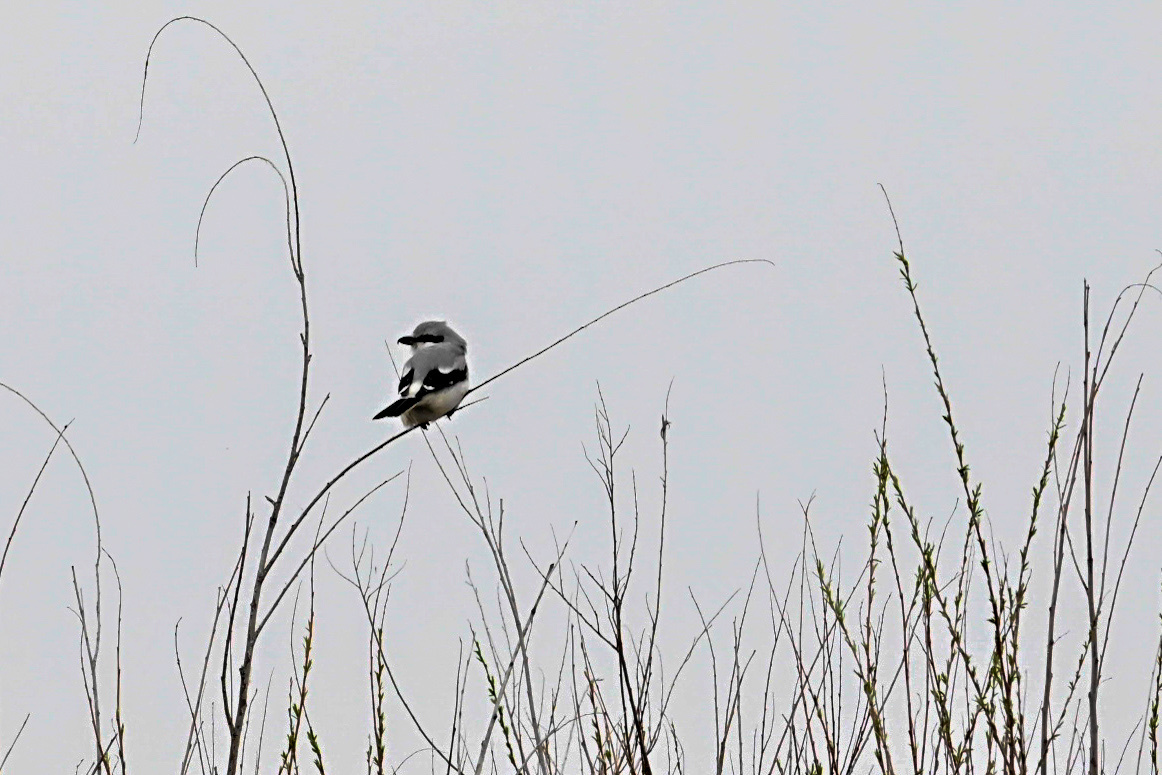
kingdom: Animalia
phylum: Chordata
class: Aves
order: Passeriformes
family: Laniidae
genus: Lanius
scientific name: Lanius ludovicianus
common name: Loggerhead shrike
